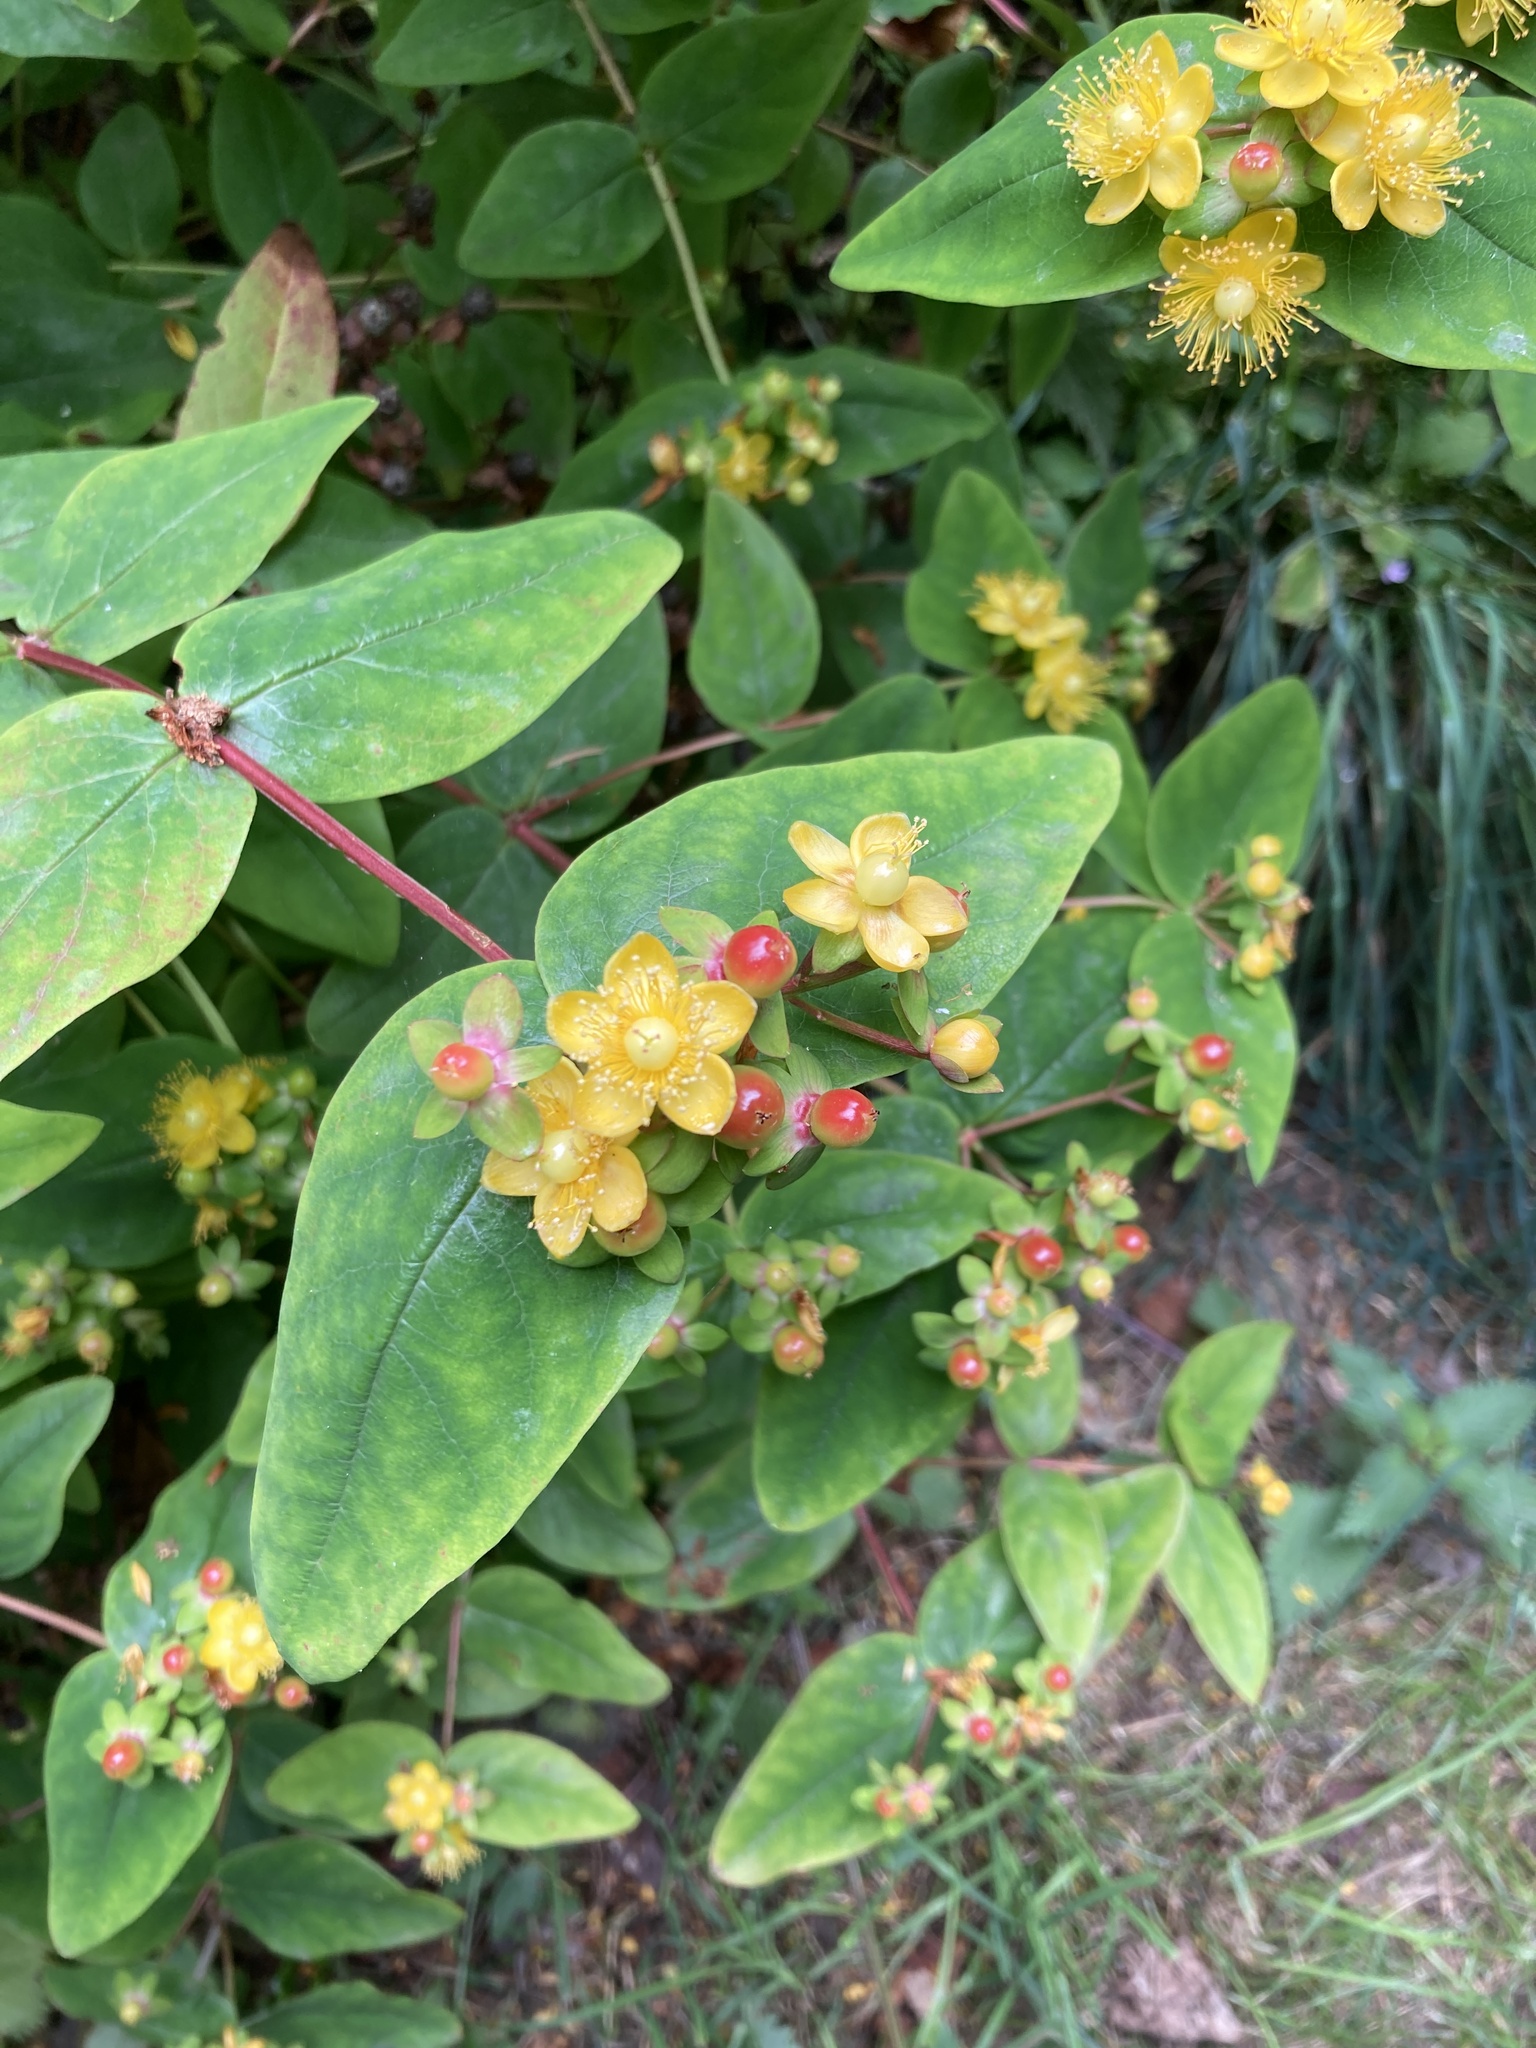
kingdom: Plantae
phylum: Tracheophyta
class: Magnoliopsida
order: Malpighiales
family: Hypericaceae
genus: Hypericum
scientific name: Hypericum androsaemum
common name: Sweet-amber
